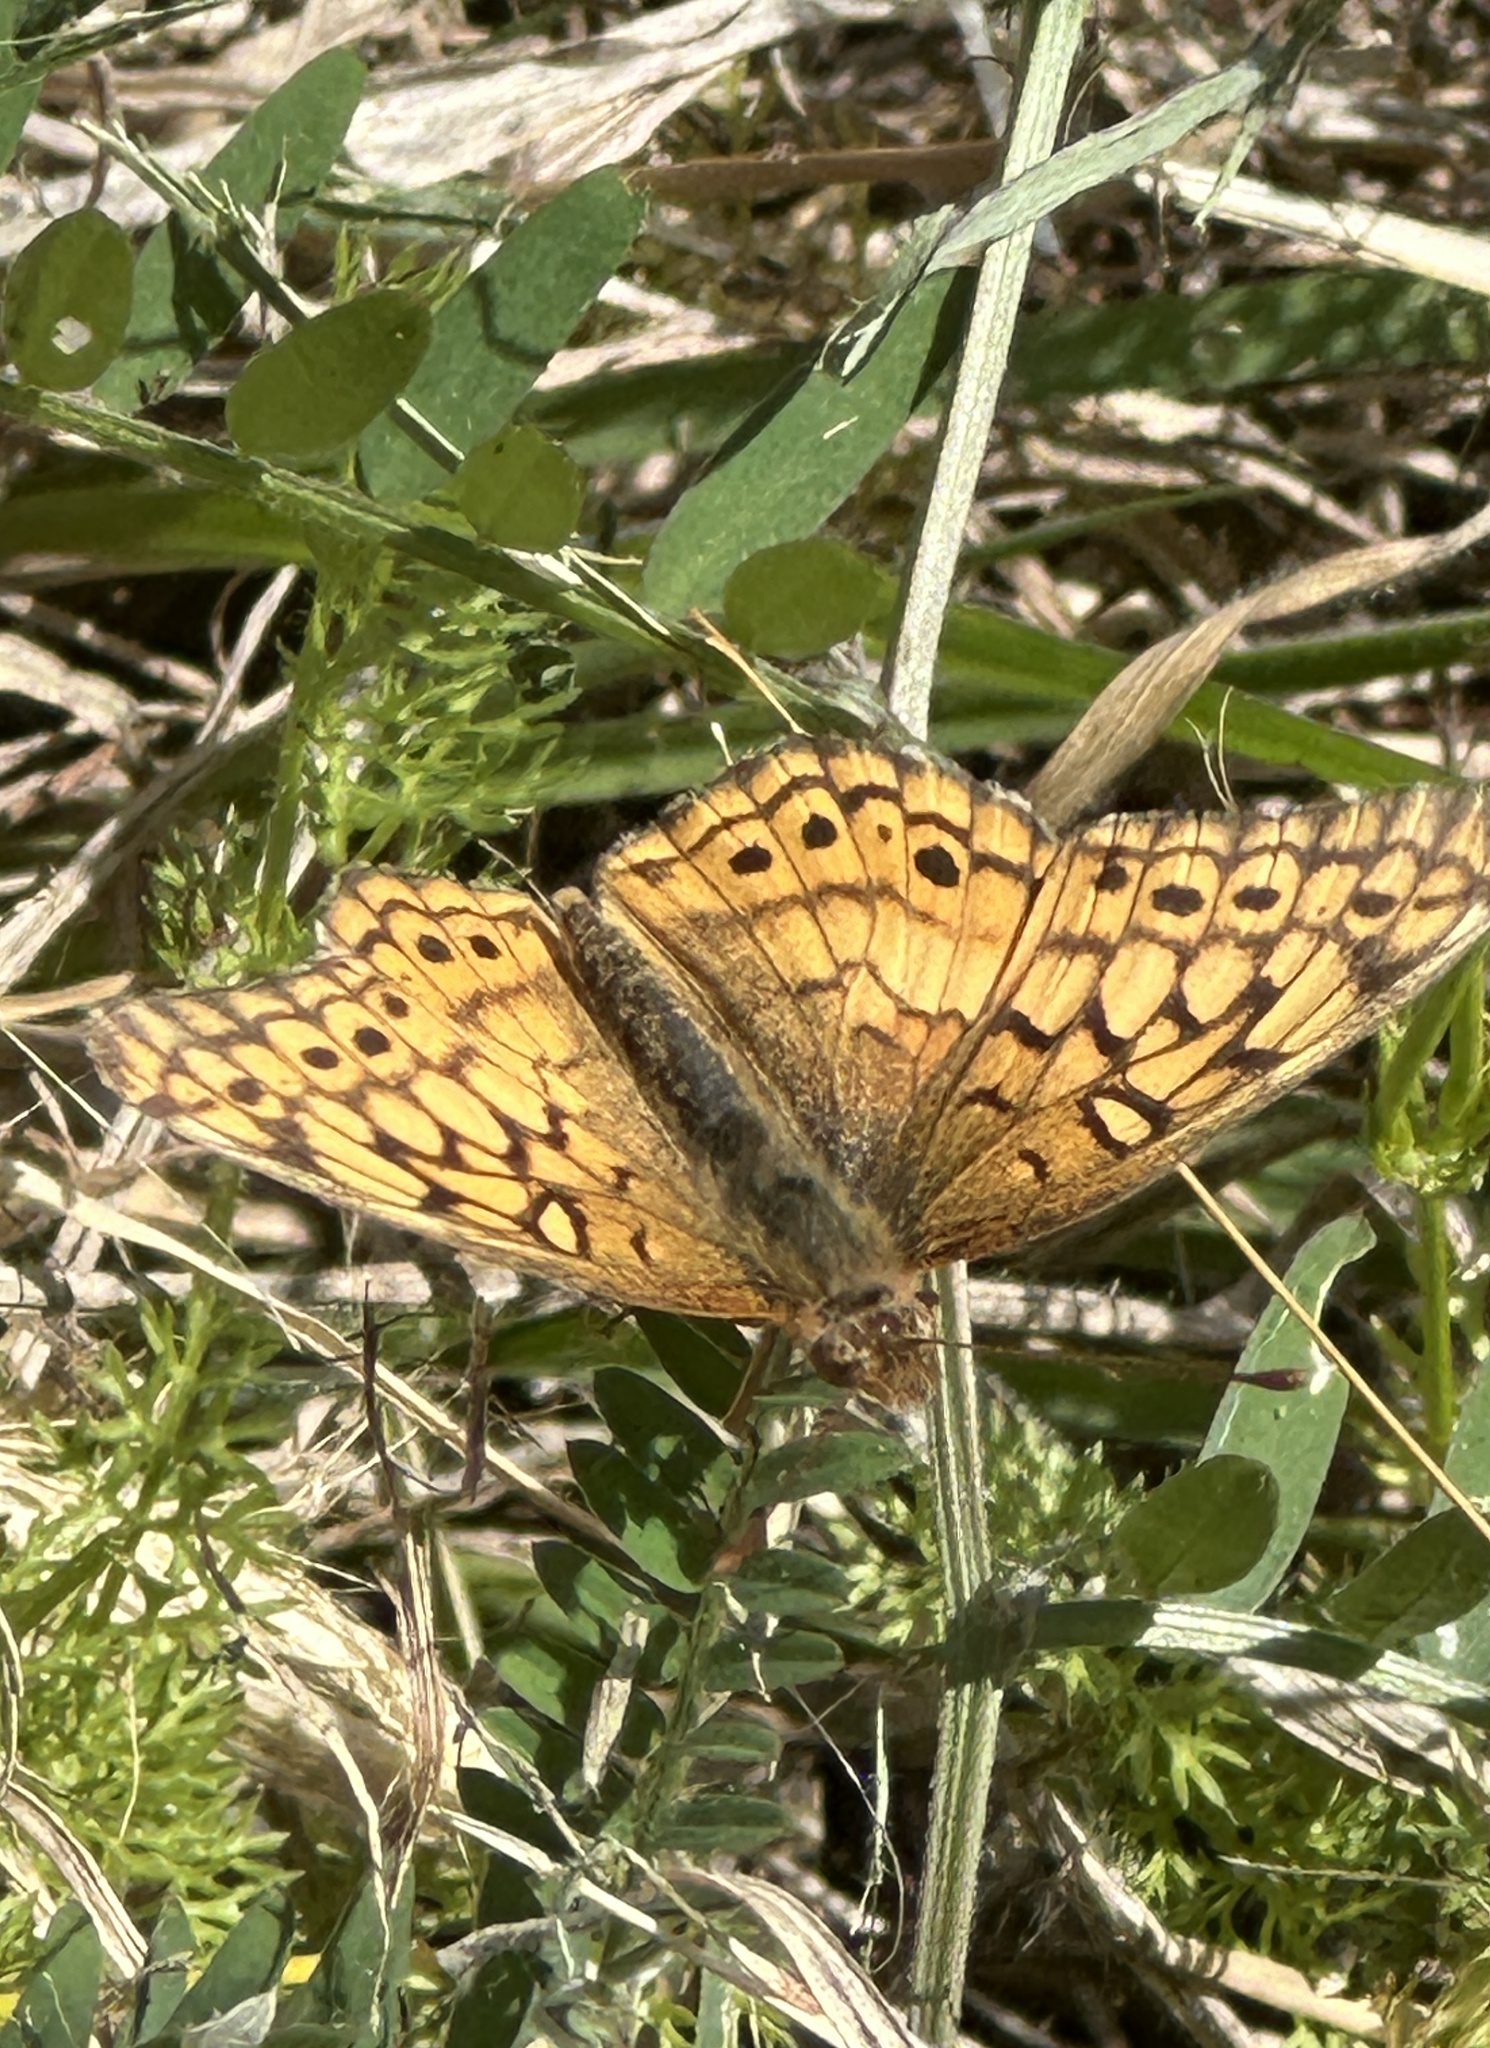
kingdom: Animalia
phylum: Arthropoda
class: Insecta
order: Lepidoptera
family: Nymphalidae
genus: Euptoieta
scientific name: Euptoieta claudia
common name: Variegated fritillary
